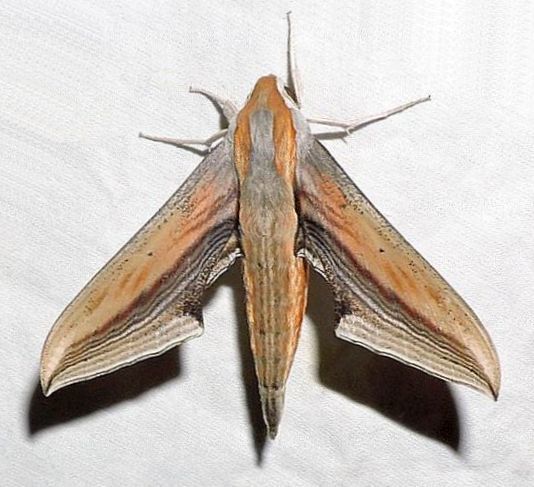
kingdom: Animalia
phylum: Arthropoda
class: Insecta
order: Lepidoptera
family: Sphingidae
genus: Xylophanes
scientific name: Xylophanes falco
